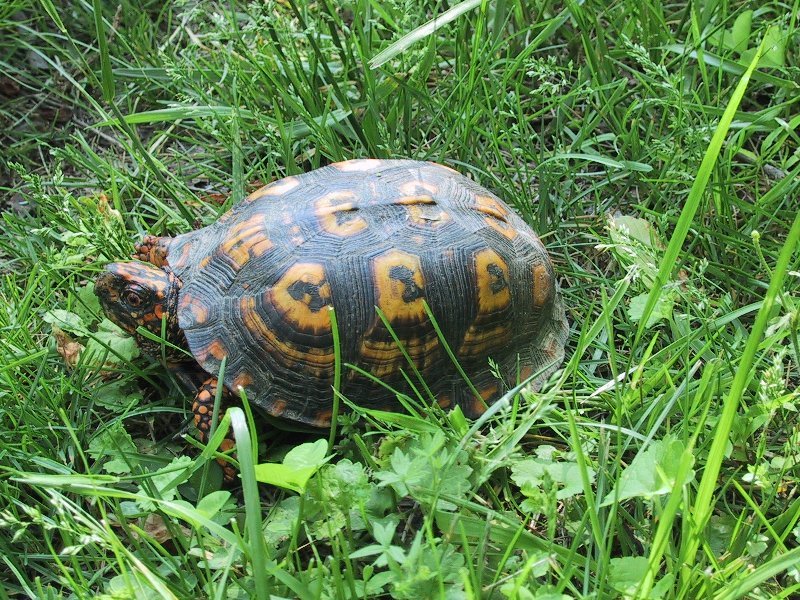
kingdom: Animalia
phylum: Chordata
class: Testudines
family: Emydidae
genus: Terrapene
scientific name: Terrapene carolina
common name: Common box turtle
